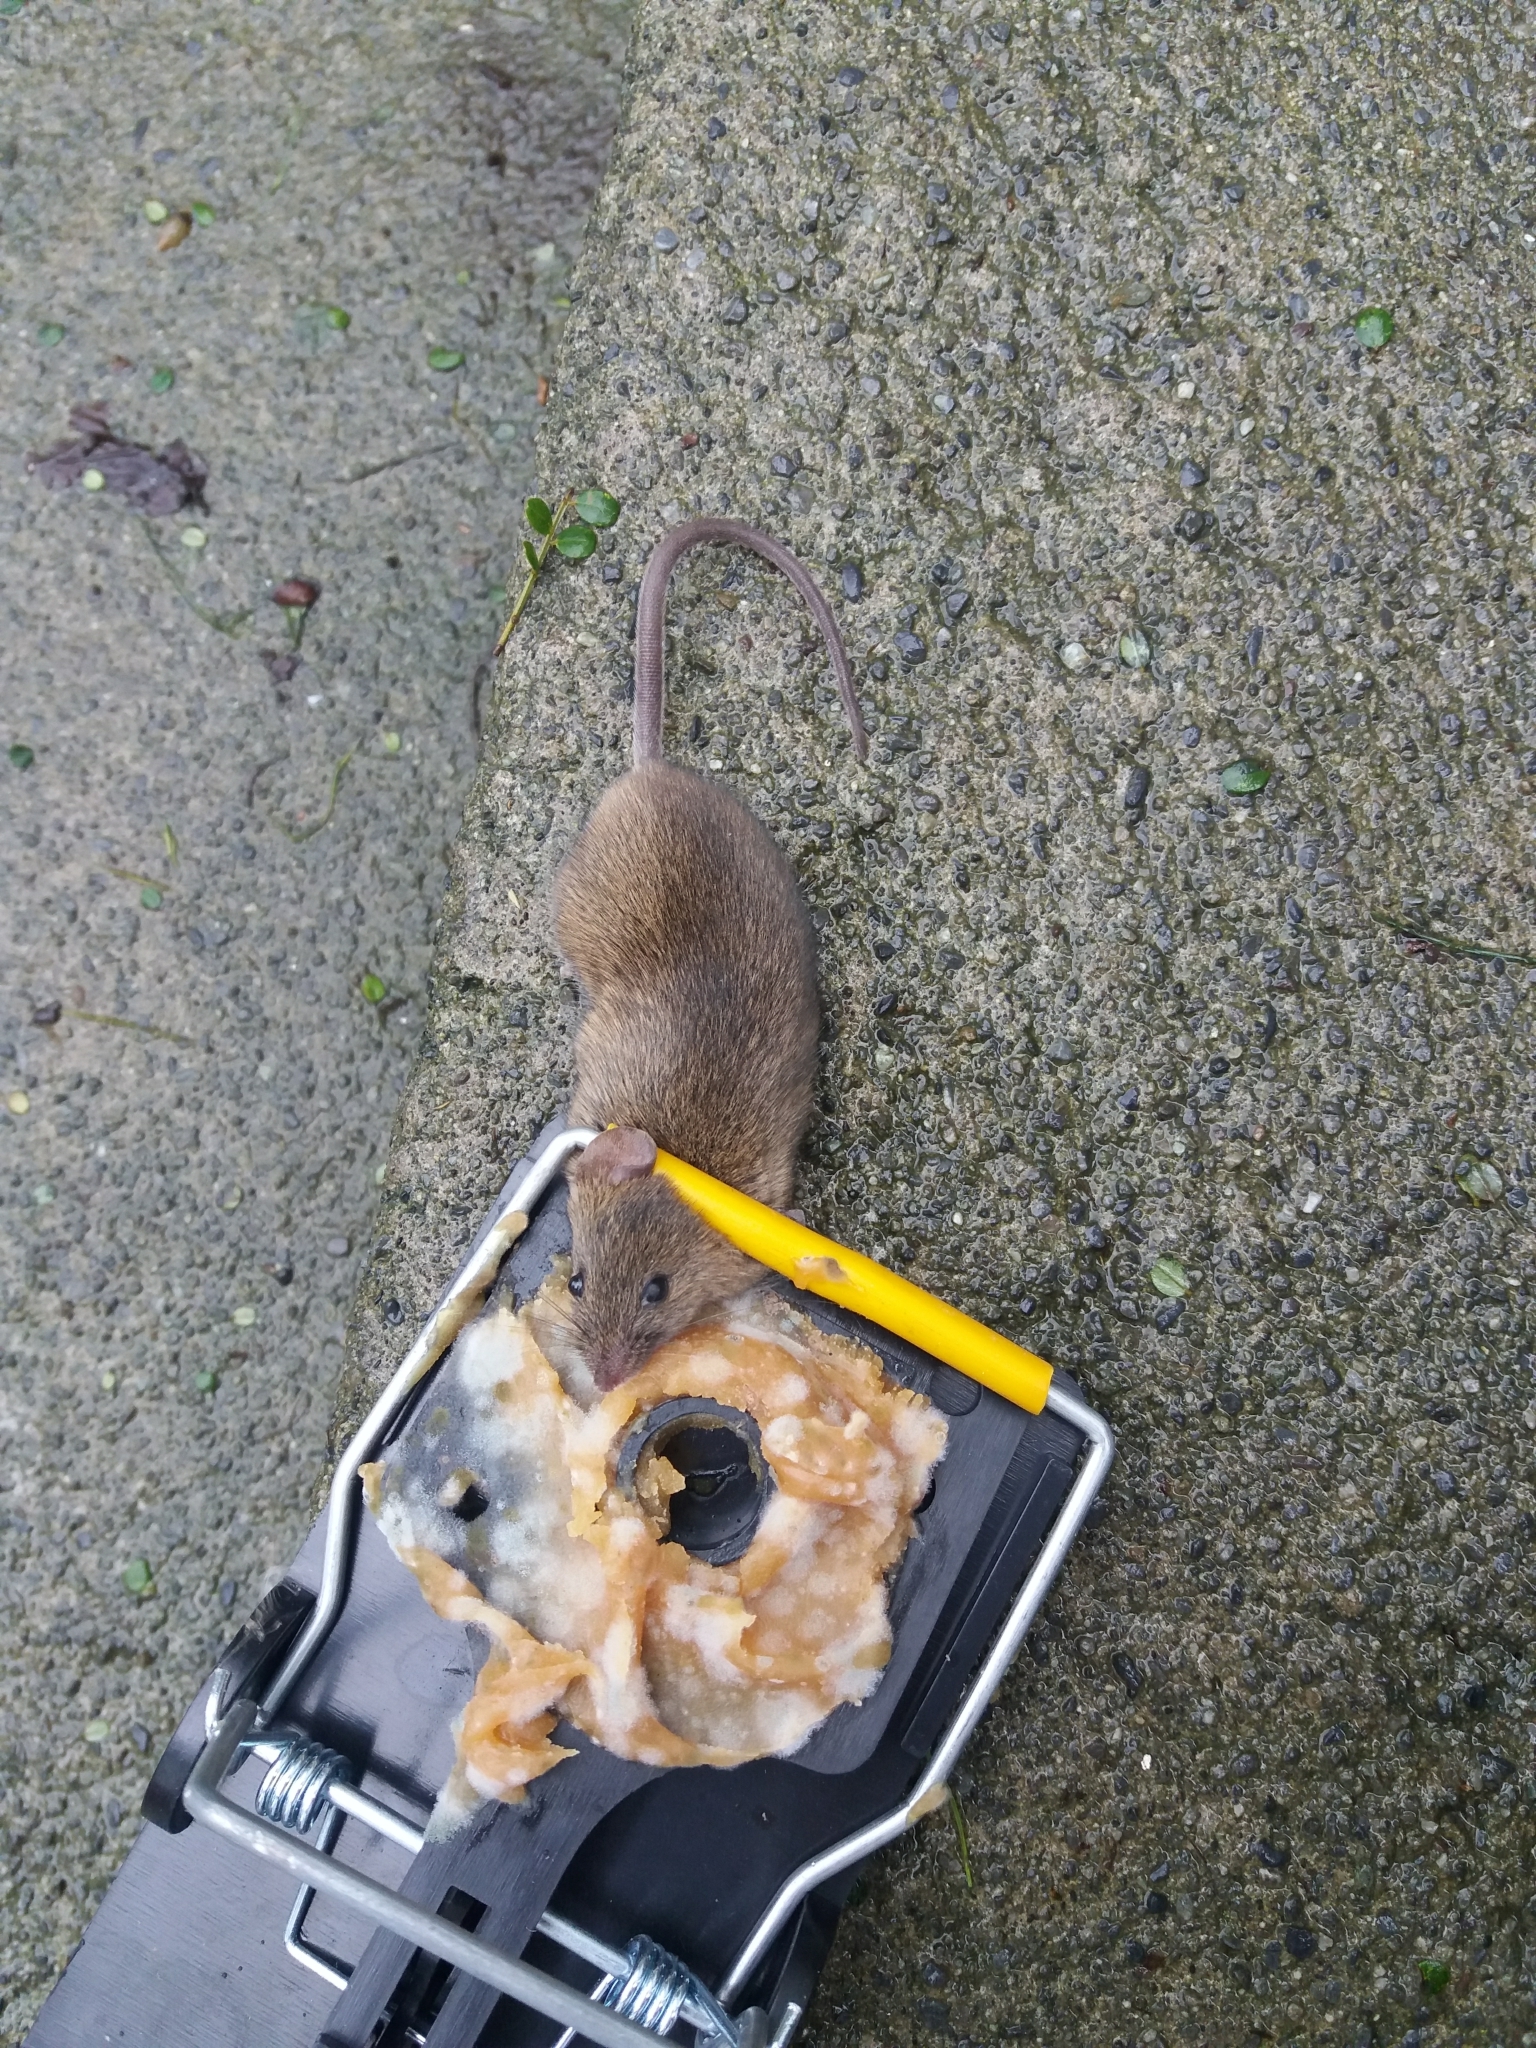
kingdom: Animalia
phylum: Chordata
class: Mammalia
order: Rodentia
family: Muridae
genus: Mus
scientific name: Mus musculus
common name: House mouse
